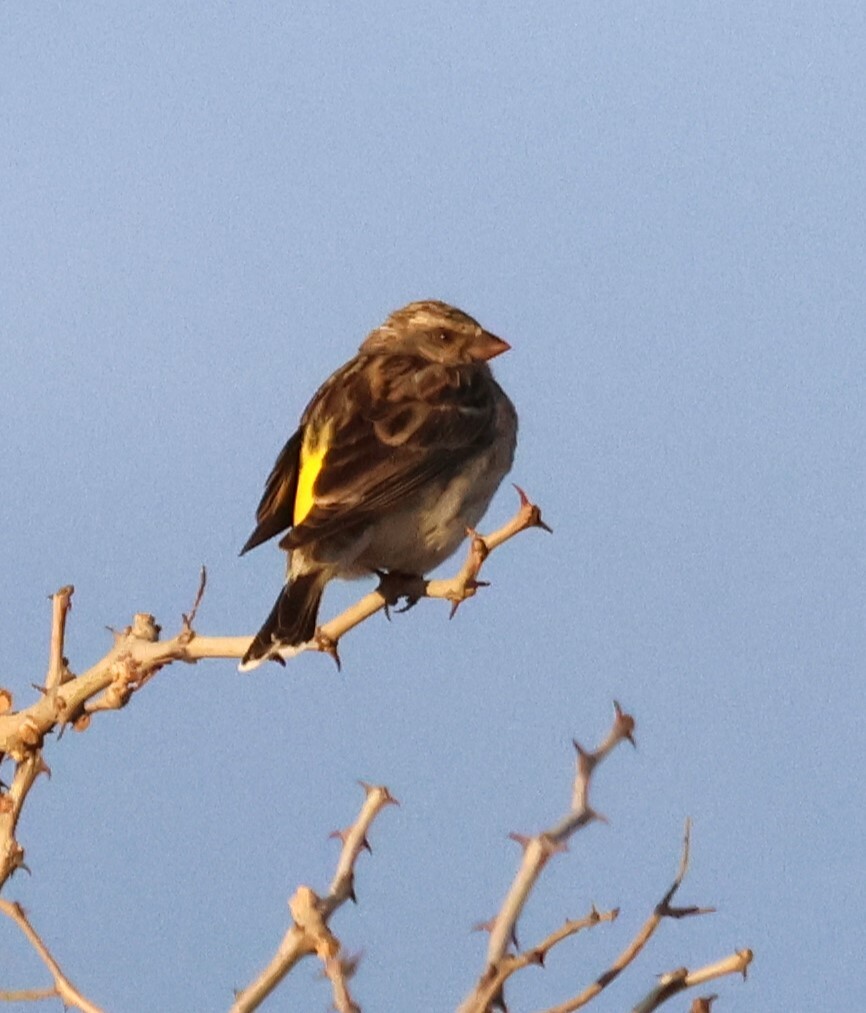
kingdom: Animalia
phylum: Chordata
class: Aves
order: Passeriformes
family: Fringillidae
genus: Crithagra
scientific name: Crithagra atrogularis
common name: Black-throated canary
